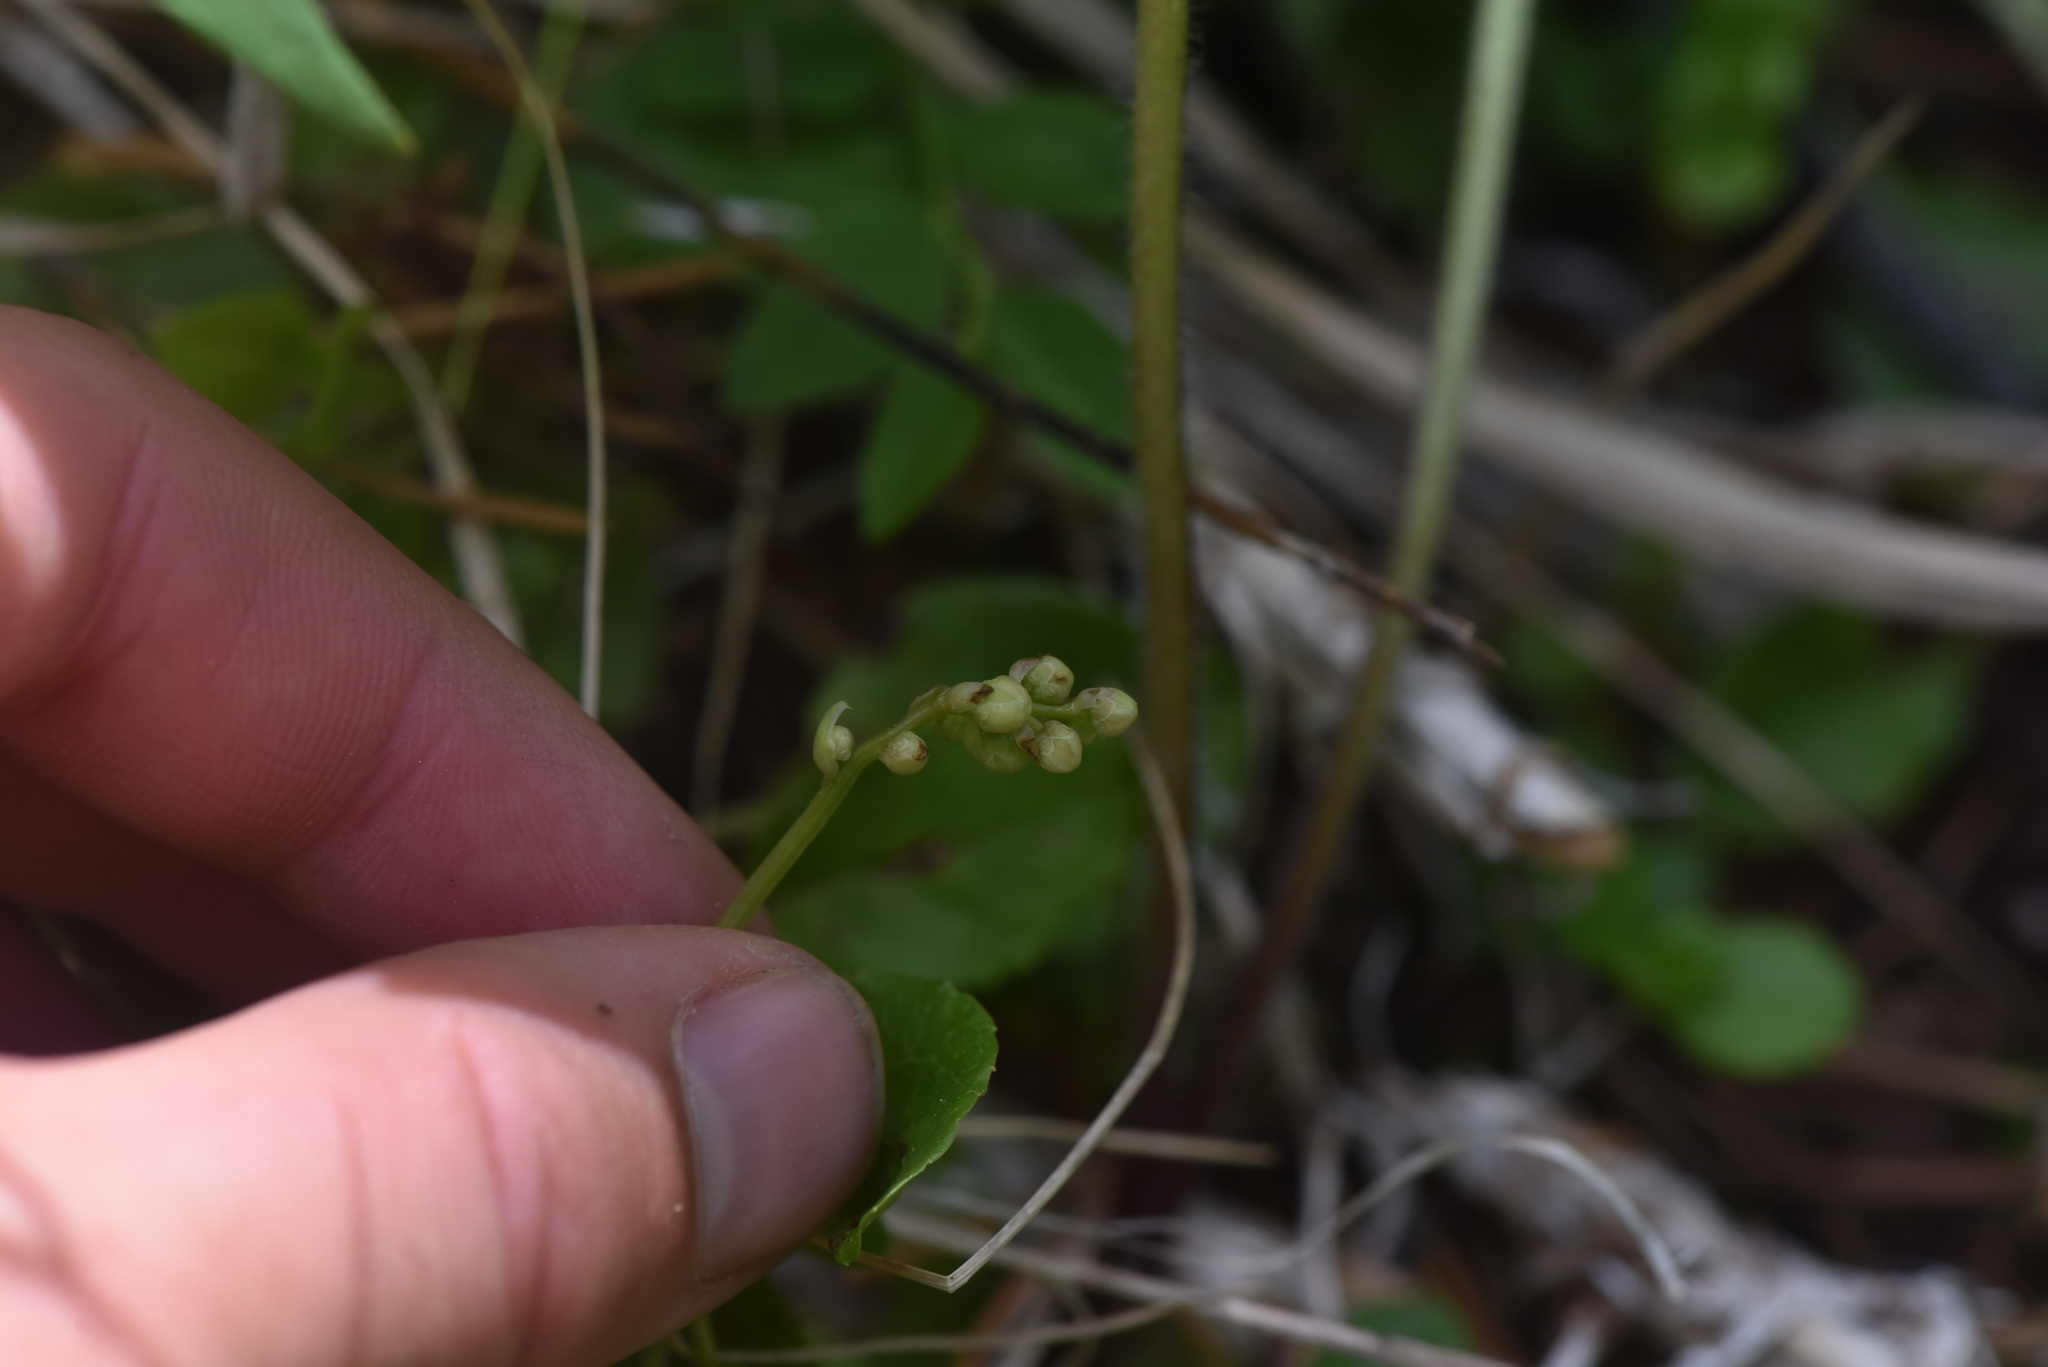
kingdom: Plantae
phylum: Tracheophyta
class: Magnoliopsida
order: Ericales
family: Ericaceae
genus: Orthilia
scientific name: Orthilia secunda
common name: One-sided orthilia
